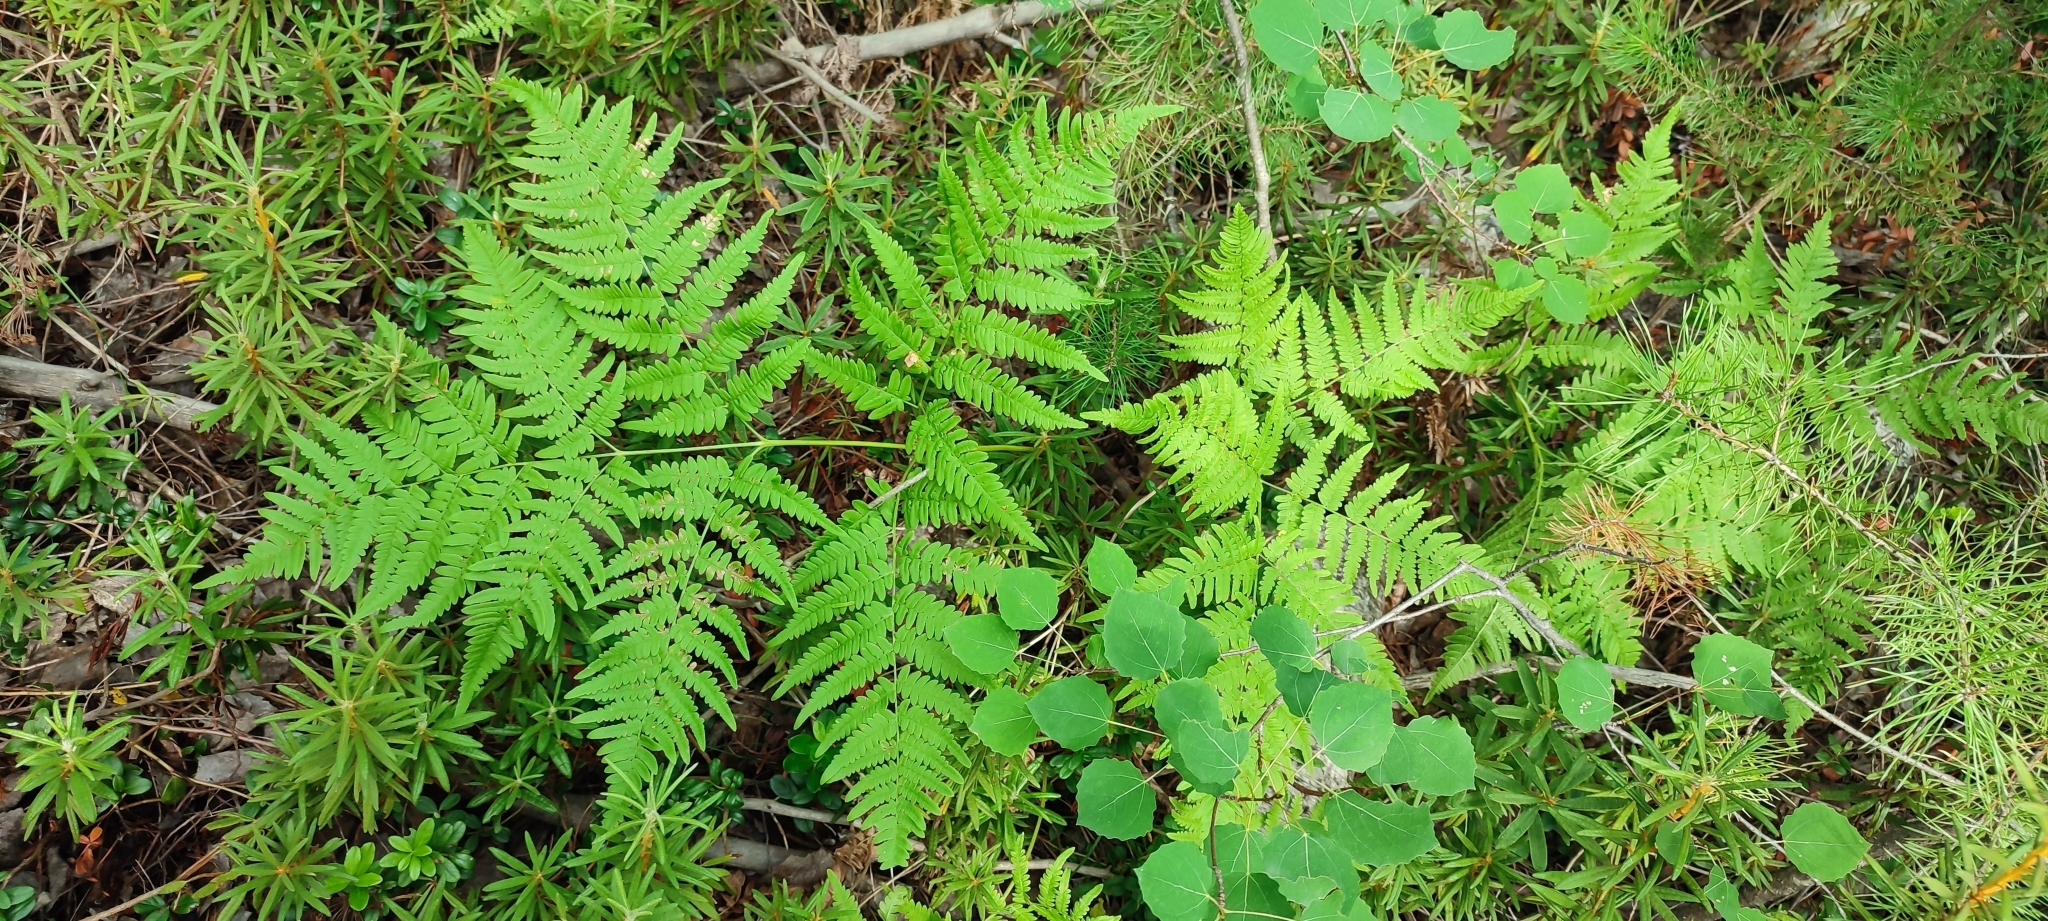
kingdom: Plantae
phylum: Tracheophyta
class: Polypodiopsida
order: Polypodiales
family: Dennstaedtiaceae
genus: Pteridium
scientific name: Pteridium aquilinum
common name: Bracken
